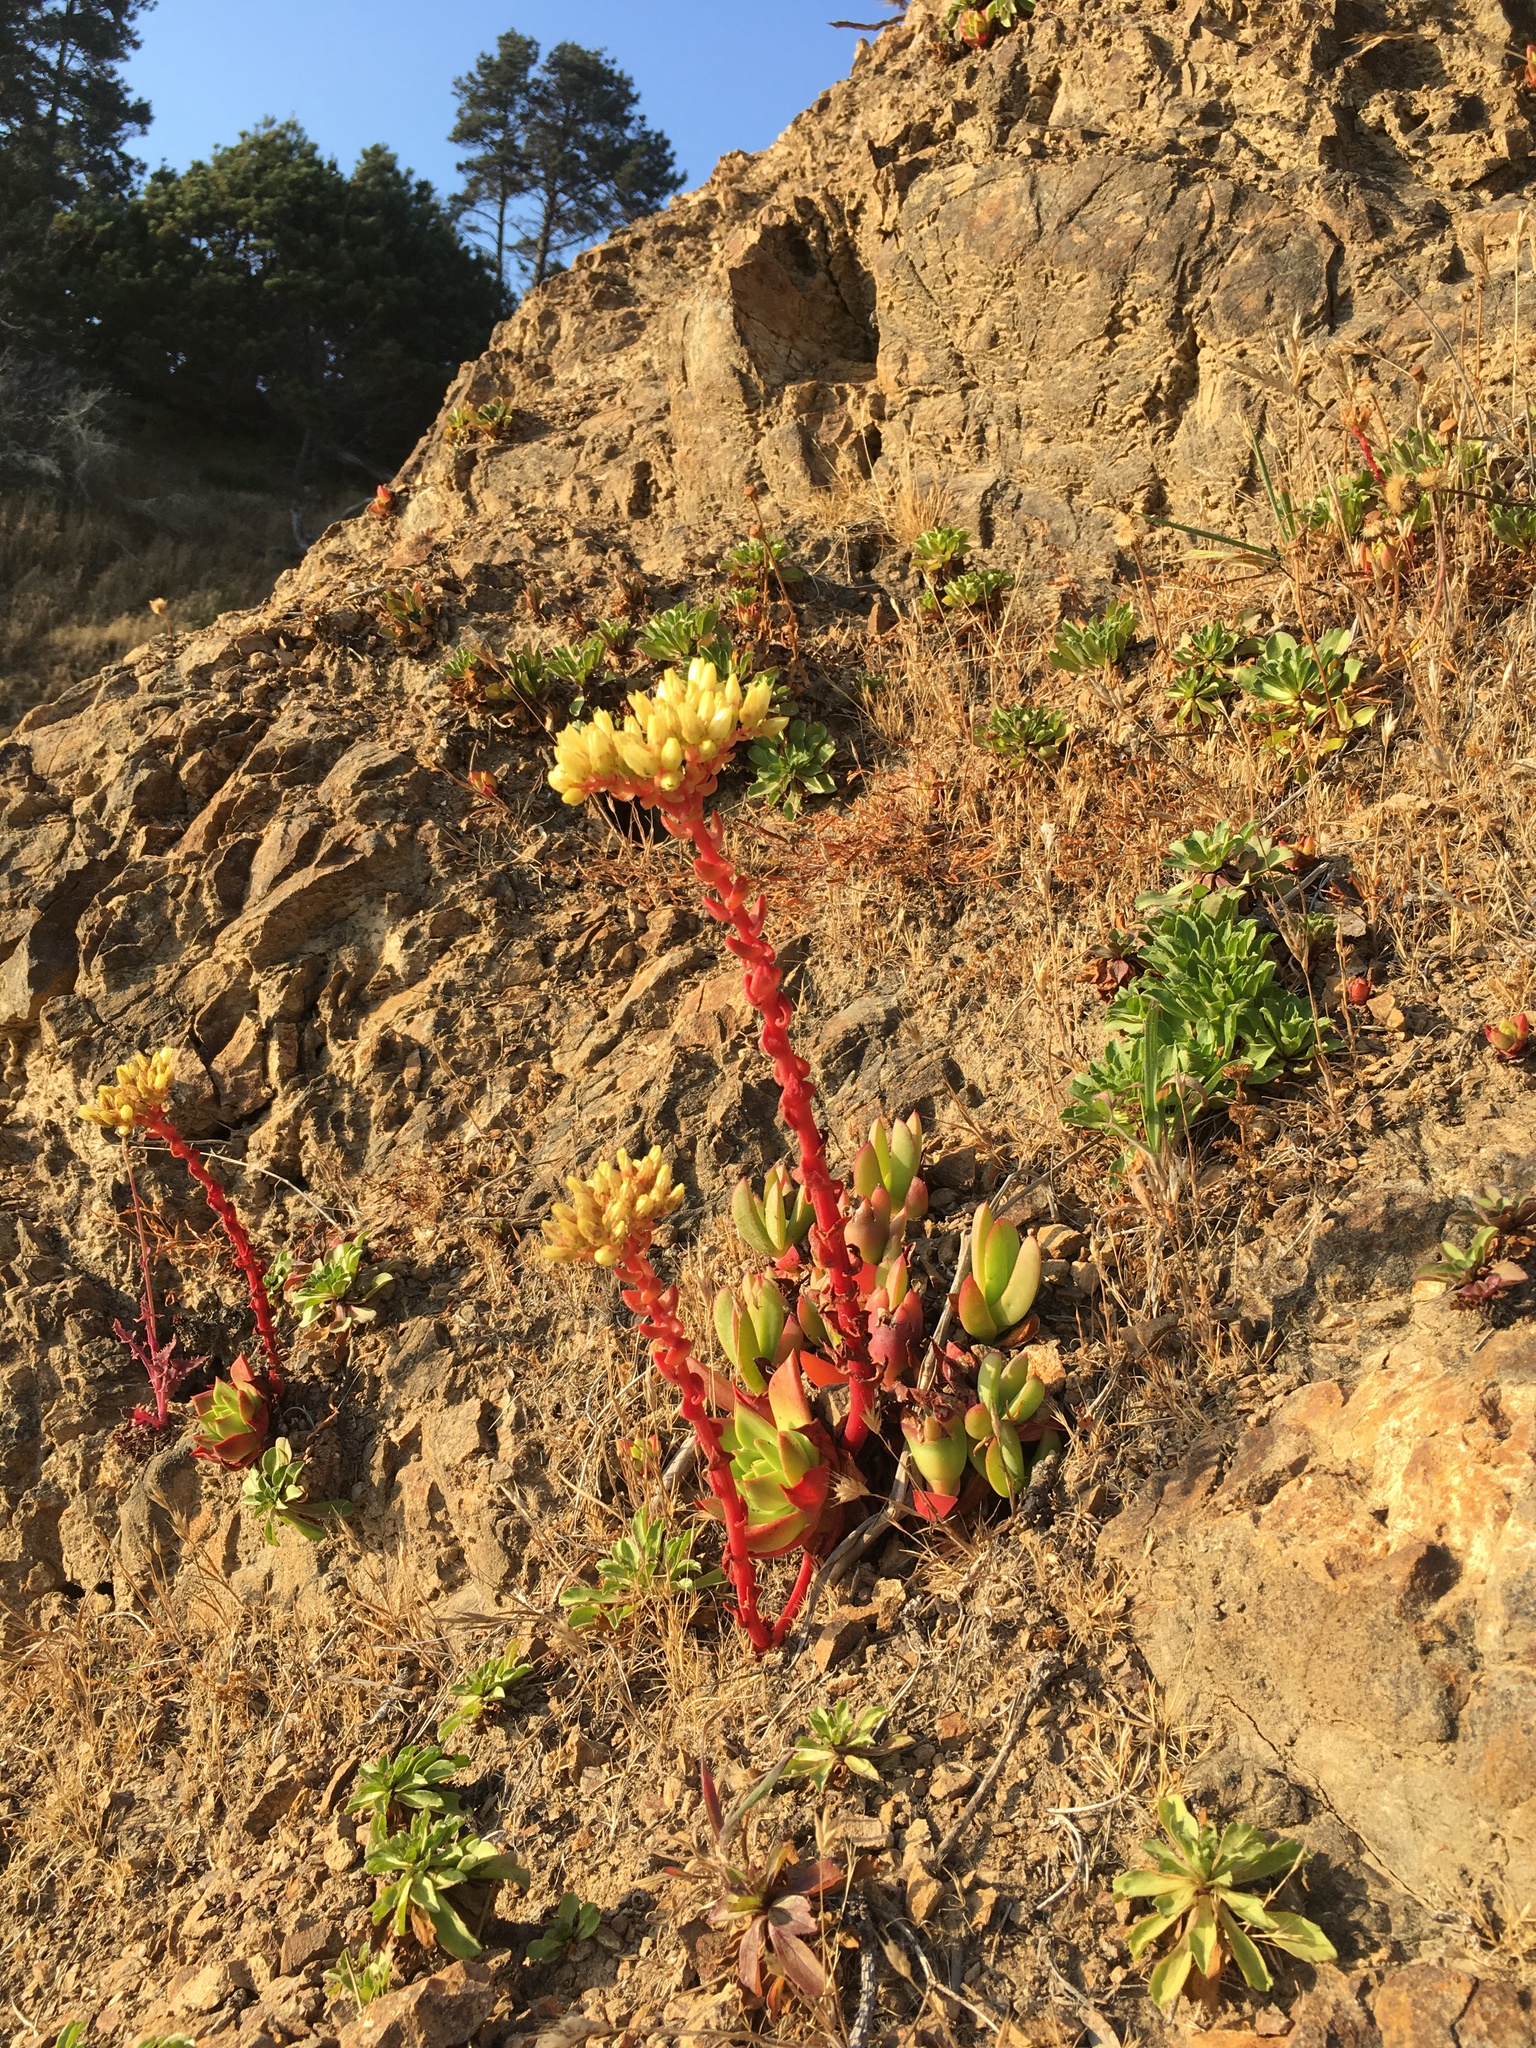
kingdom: Plantae
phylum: Tracheophyta
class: Magnoliopsida
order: Saxifragales
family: Crassulaceae
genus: Dudleya
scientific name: Dudleya farinosa
